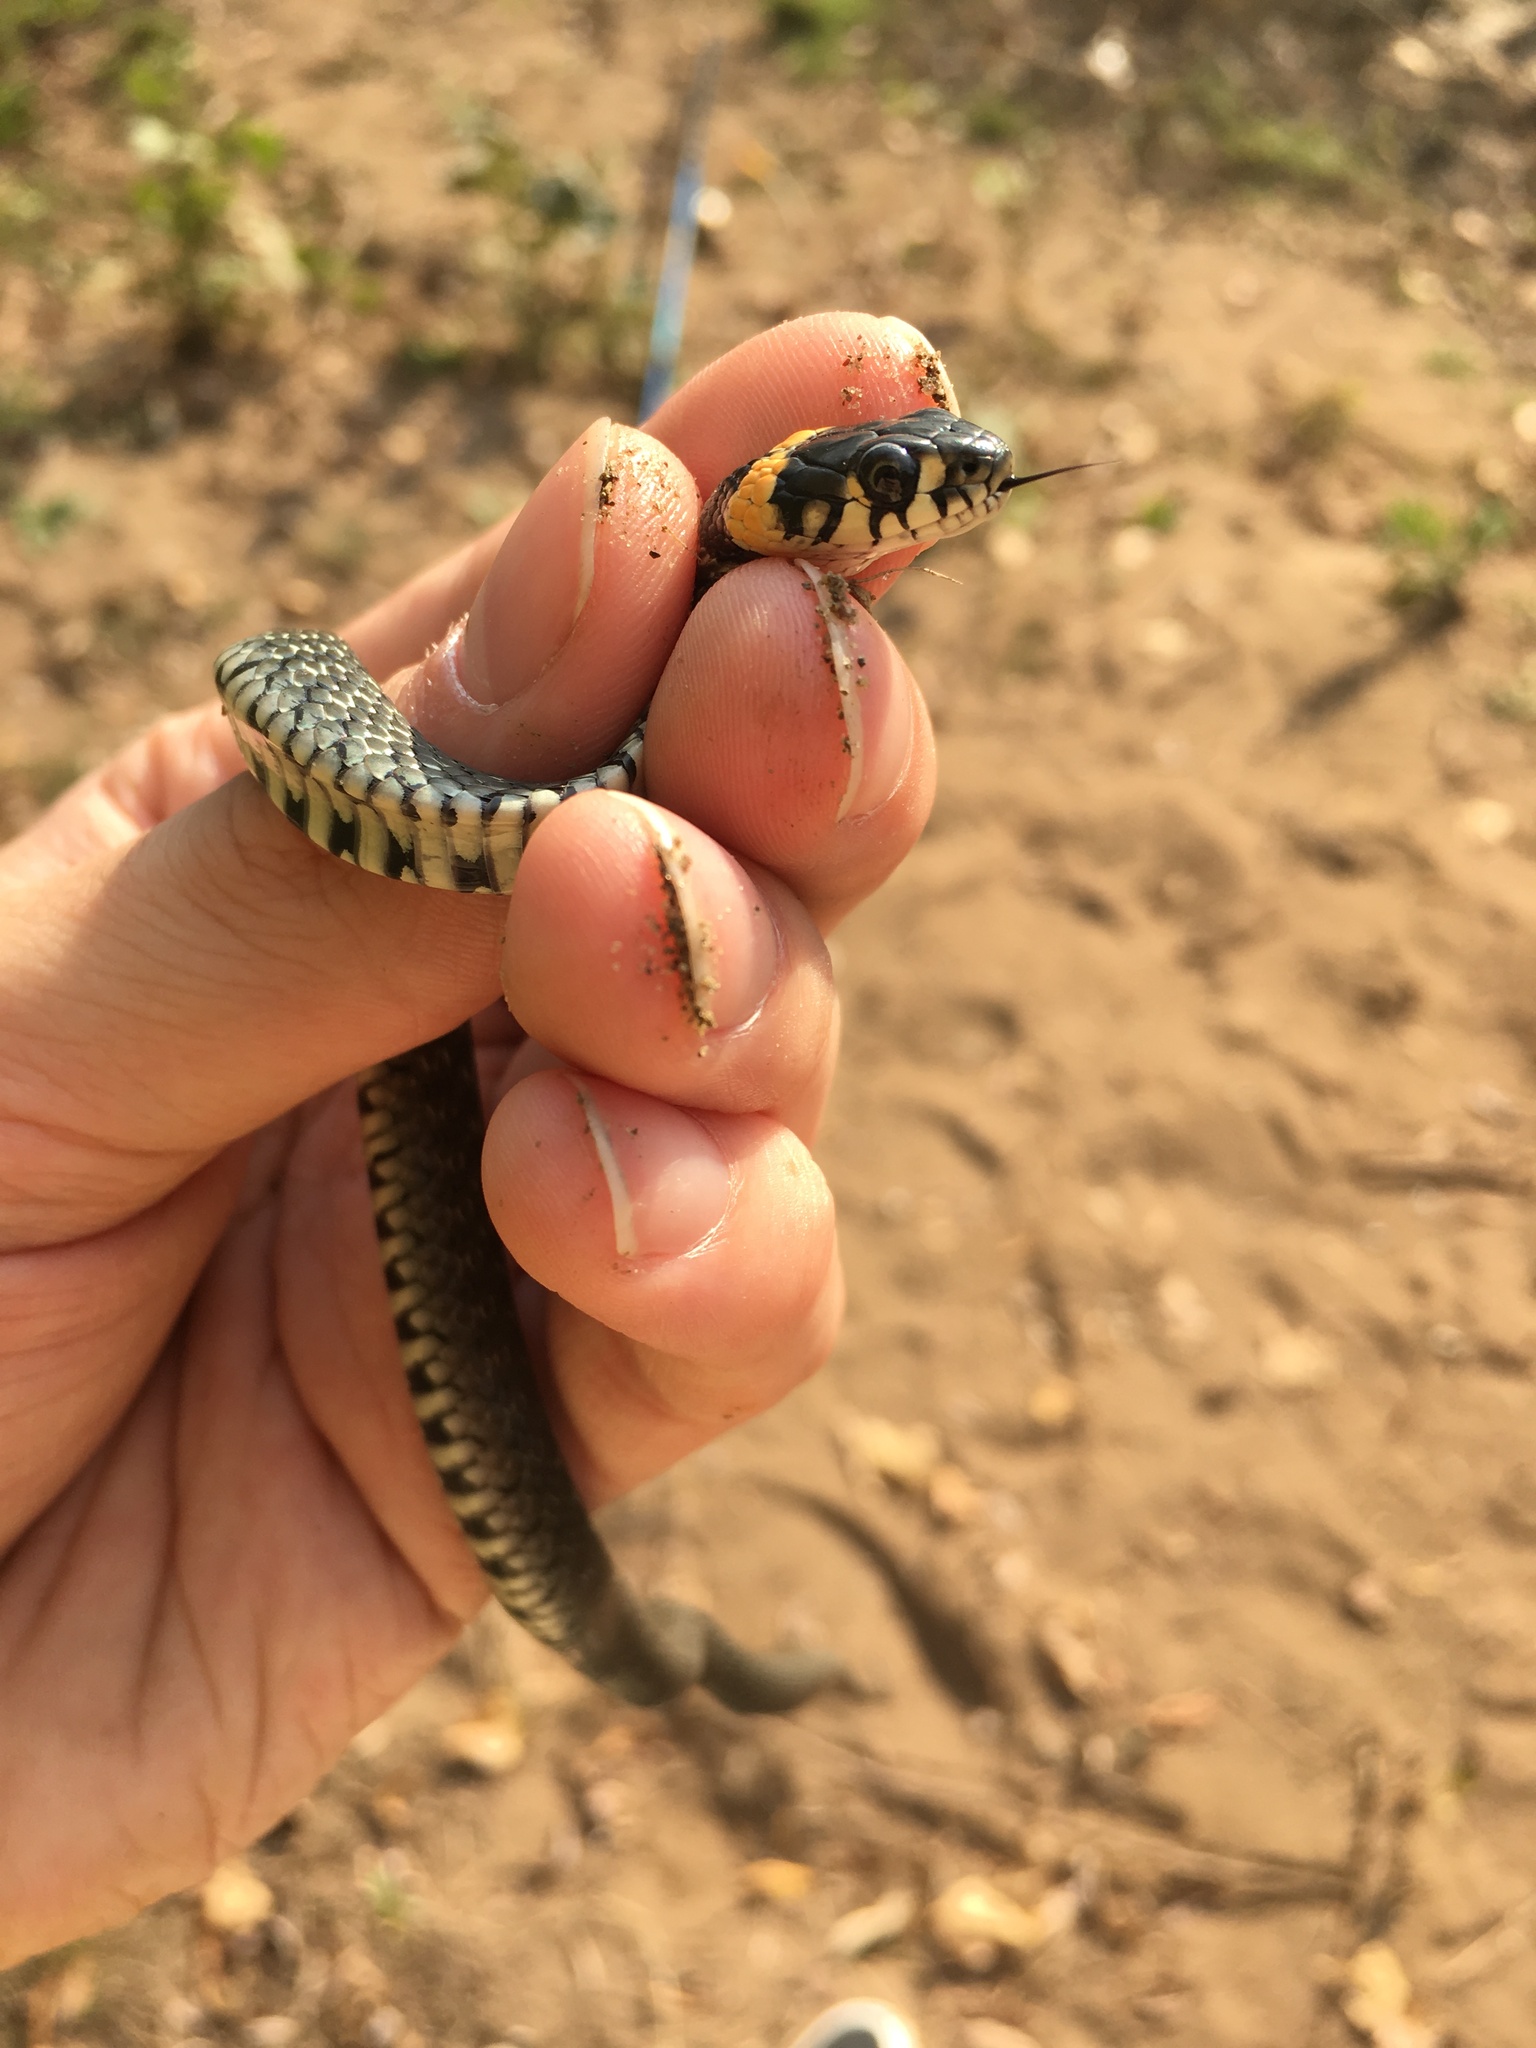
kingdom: Animalia
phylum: Chordata
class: Squamata
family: Colubridae
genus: Natrix
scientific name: Natrix natrix
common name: Grass snake
